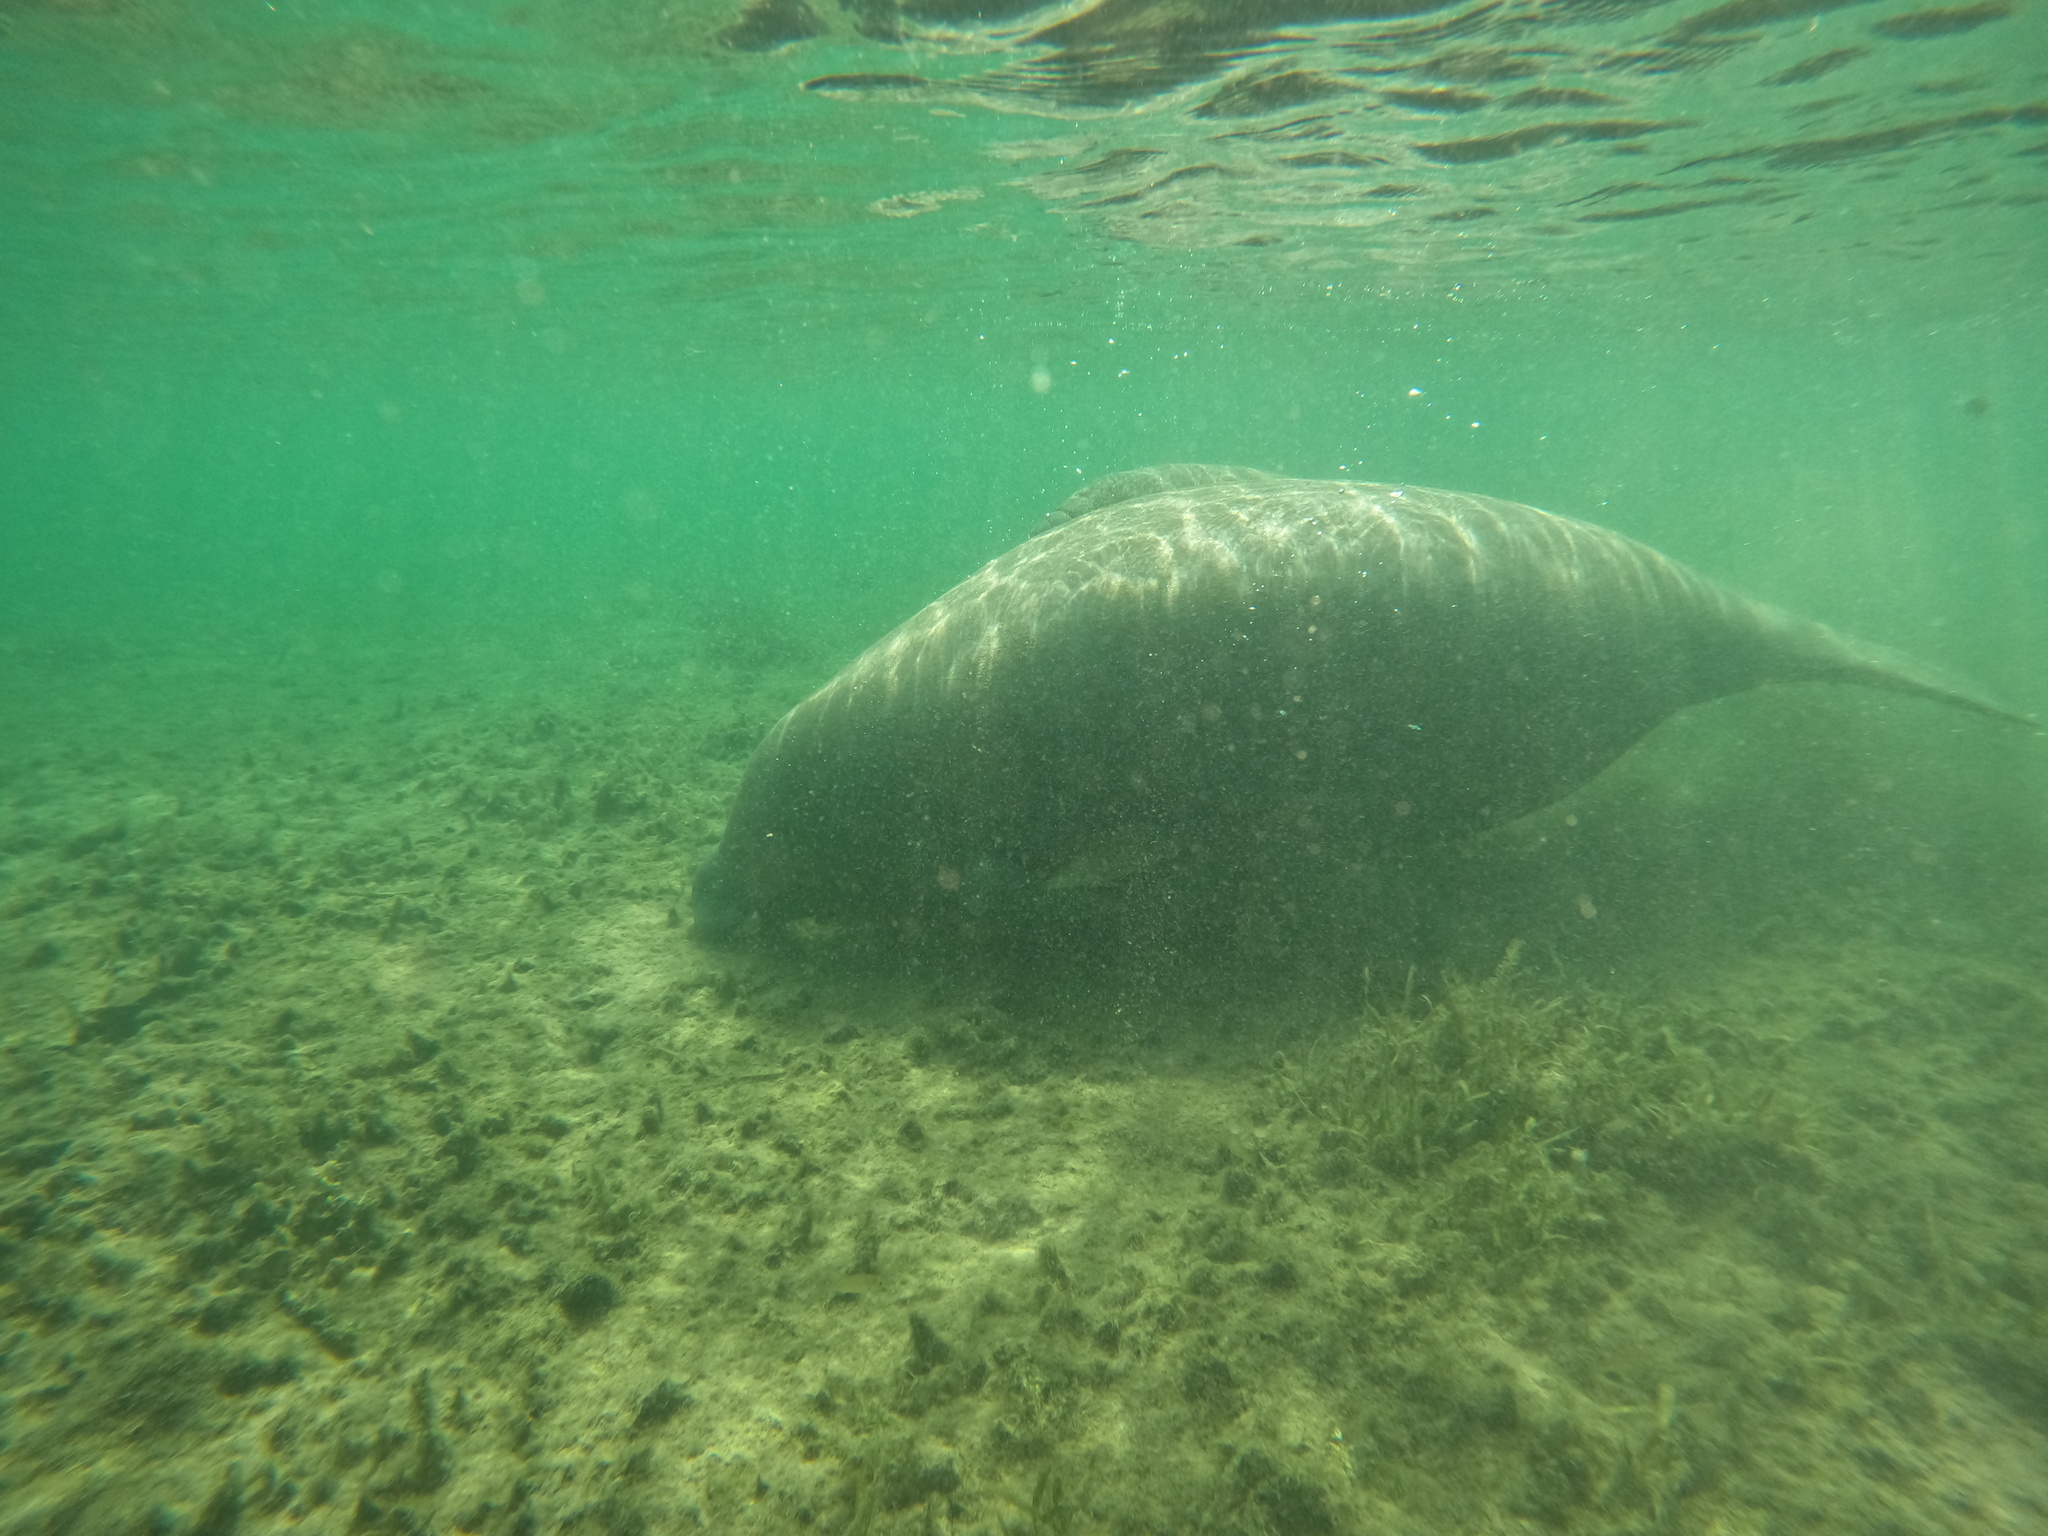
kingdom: Animalia
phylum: Chordata
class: Mammalia
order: Sirenia
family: Trichechidae
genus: Trichechus
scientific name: Trichechus manatus
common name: West indian manatee
